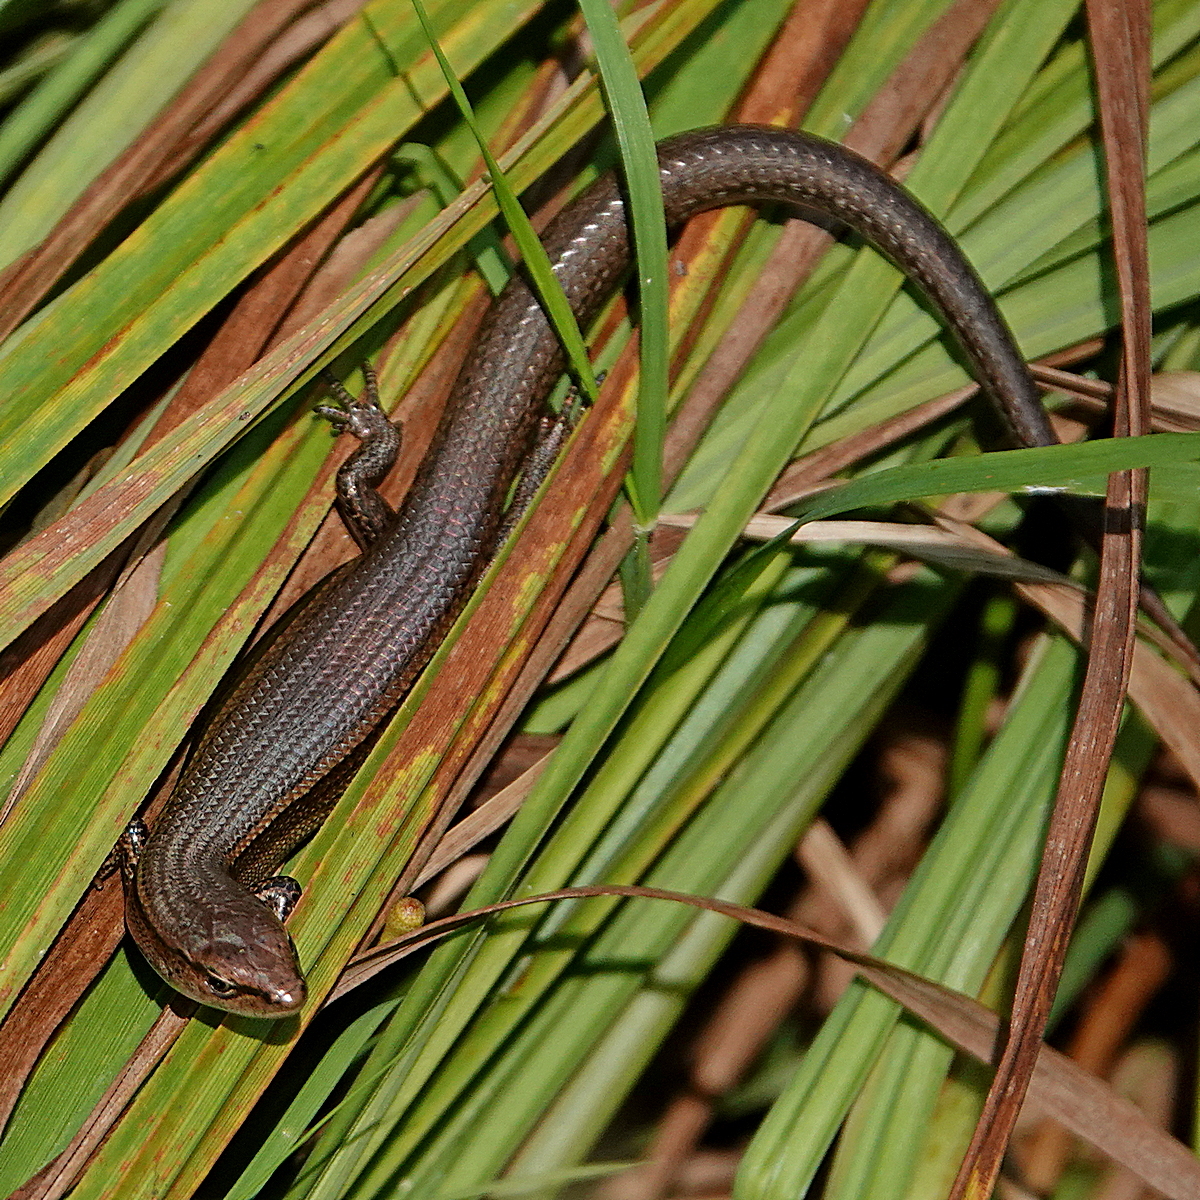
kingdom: Animalia
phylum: Chordata
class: Squamata
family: Scincidae
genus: Lampropholis
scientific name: Lampropholis delicata
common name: Plague skink
